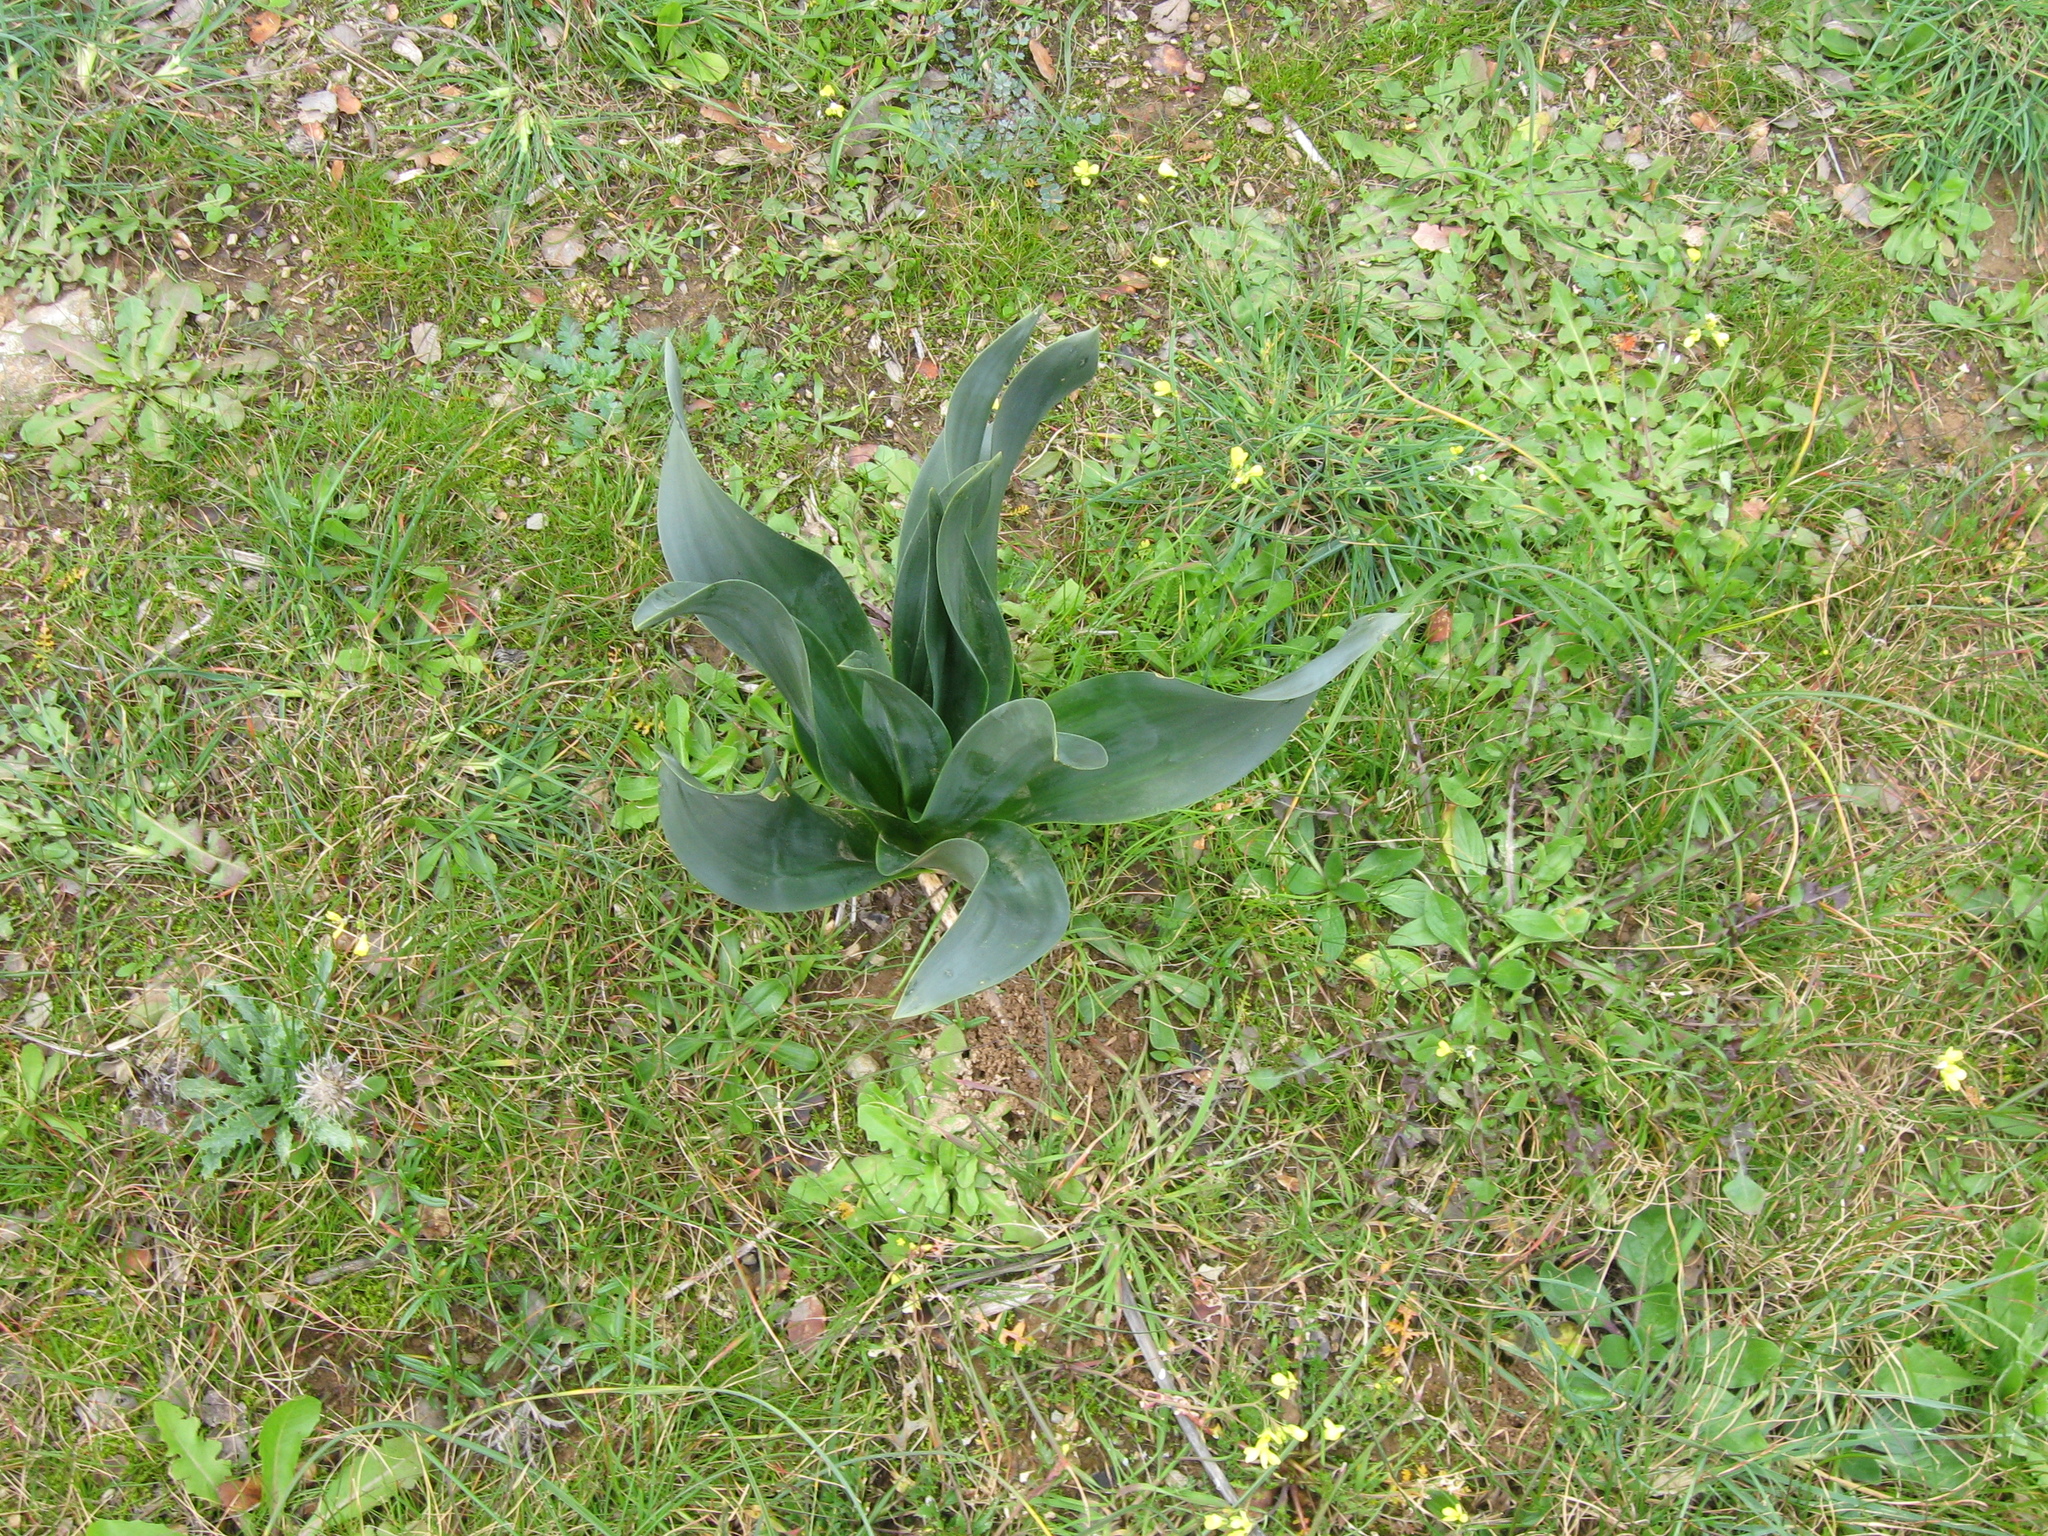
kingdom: Plantae
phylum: Tracheophyta
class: Liliopsida
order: Asparagales
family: Asparagaceae
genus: Drimia
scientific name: Drimia maritima
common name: Maritime squill
